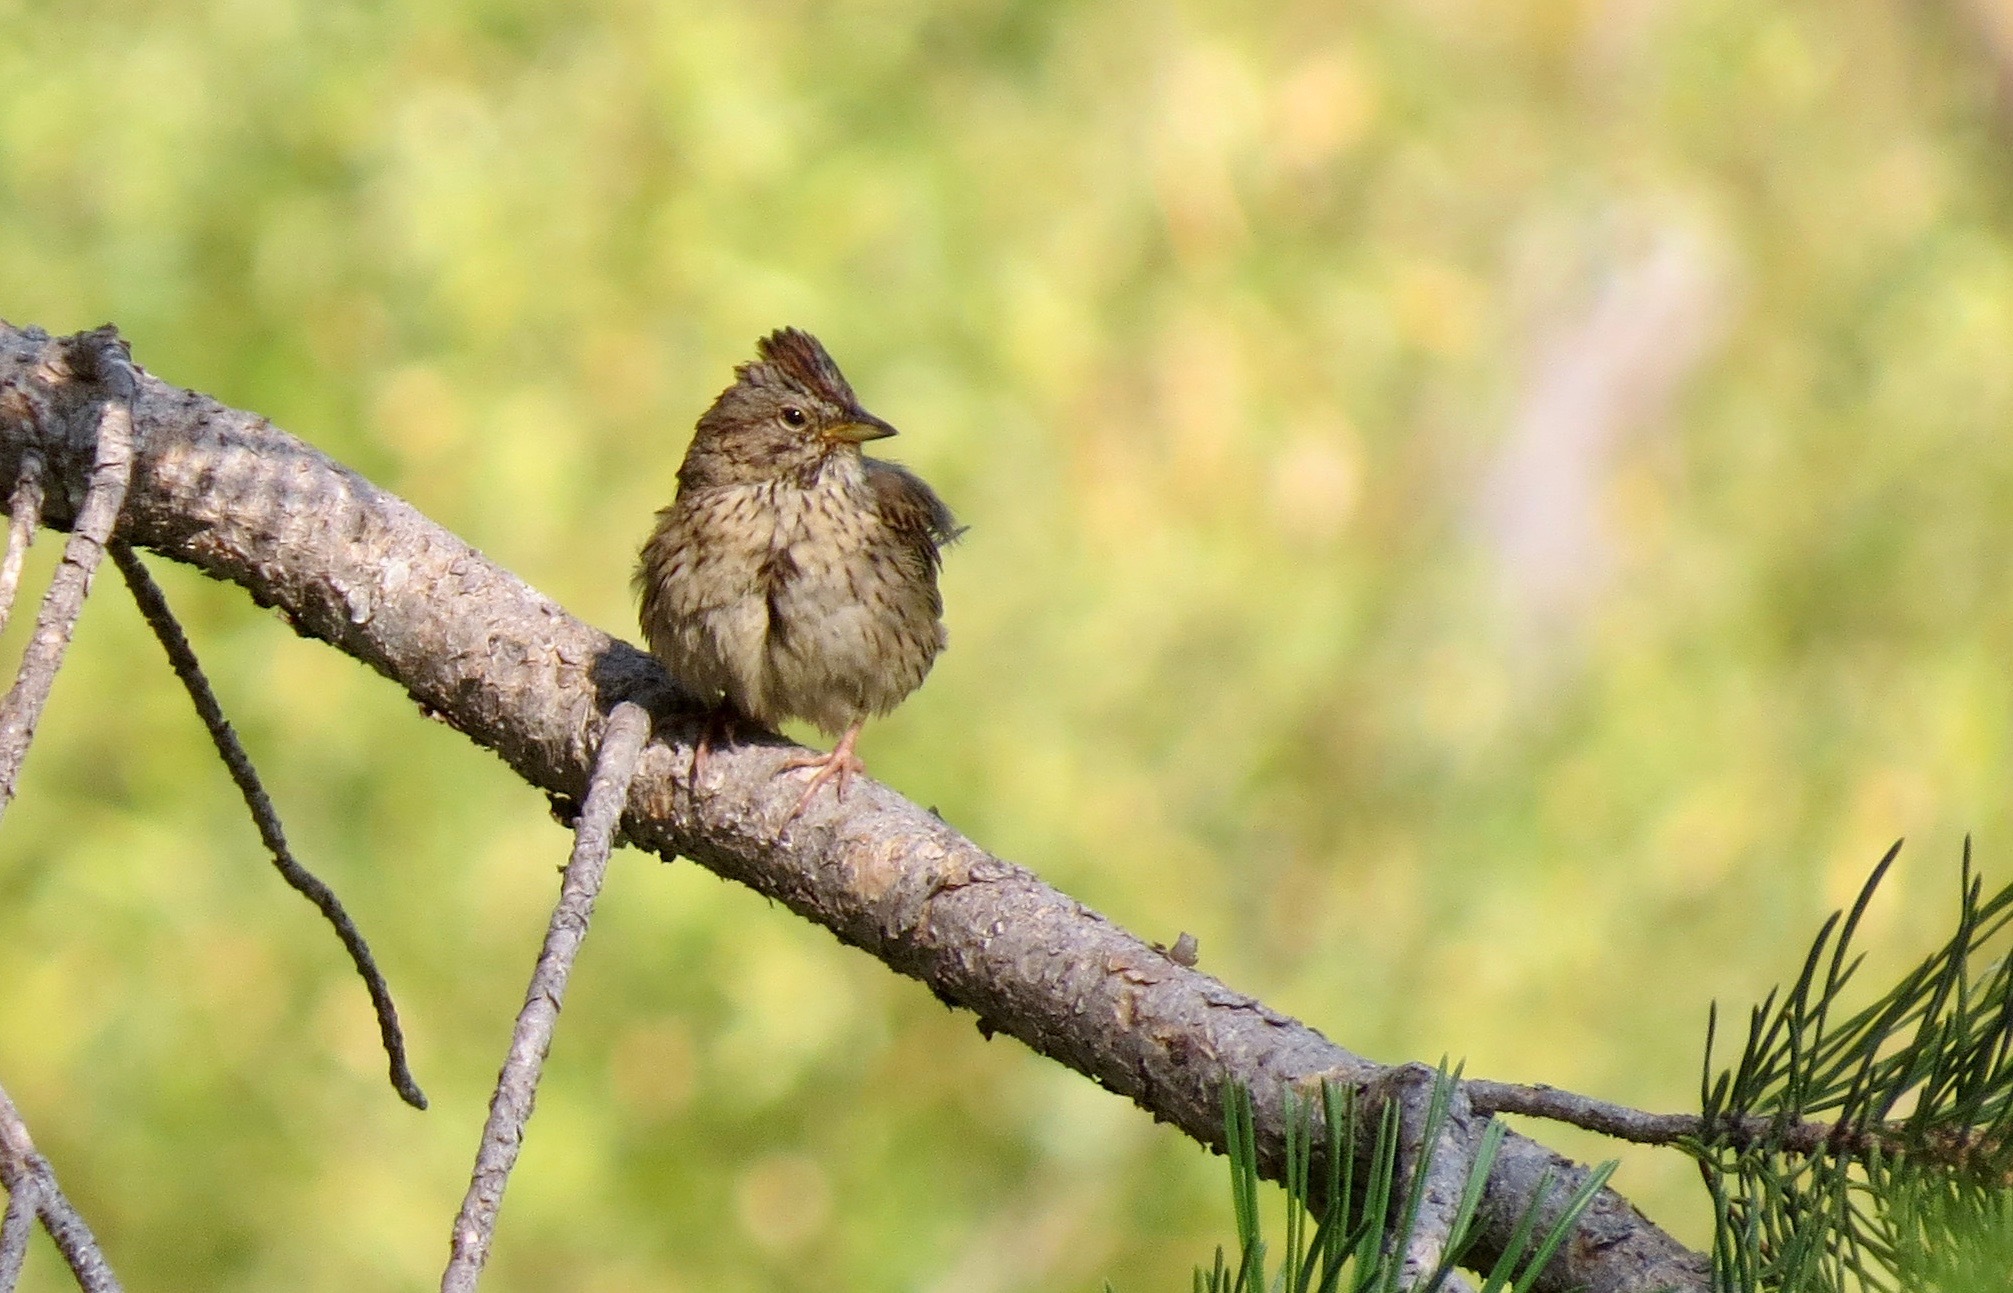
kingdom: Animalia
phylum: Chordata
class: Aves
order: Passeriformes
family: Passerellidae
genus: Melospiza
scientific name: Melospiza lincolnii
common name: Lincoln's sparrow
